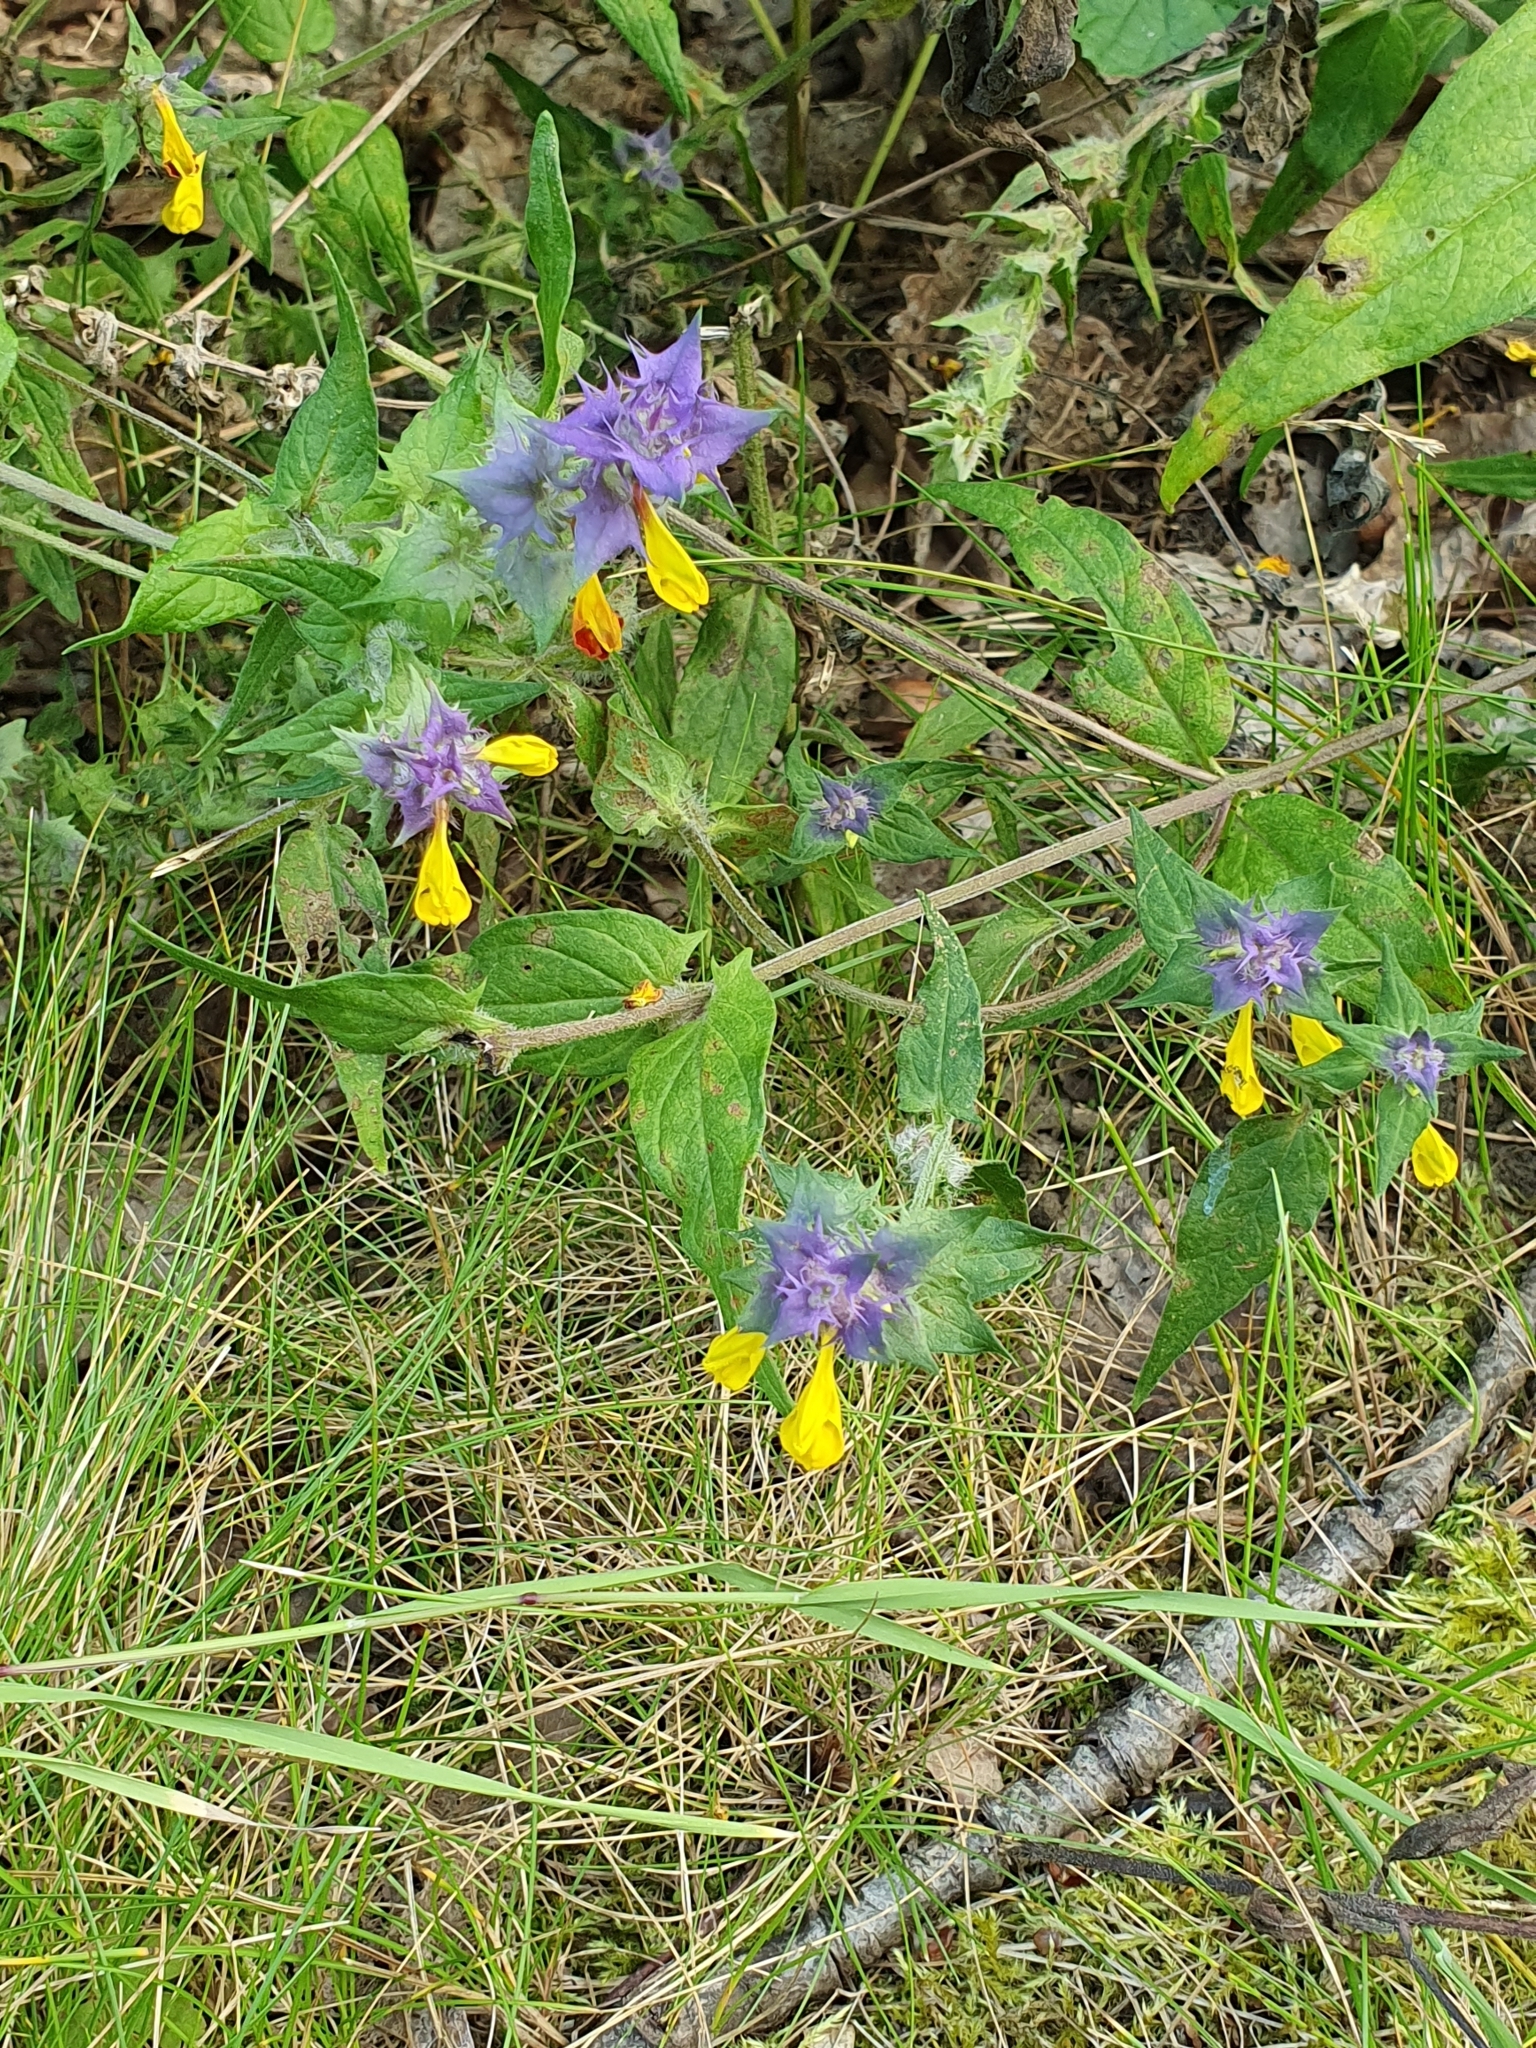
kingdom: Plantae
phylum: Tracheophyta
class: Magnoliopsida
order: Lamiales
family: Orobanchaceae
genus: Melampyrum
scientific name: Melampyrum nemorosum
